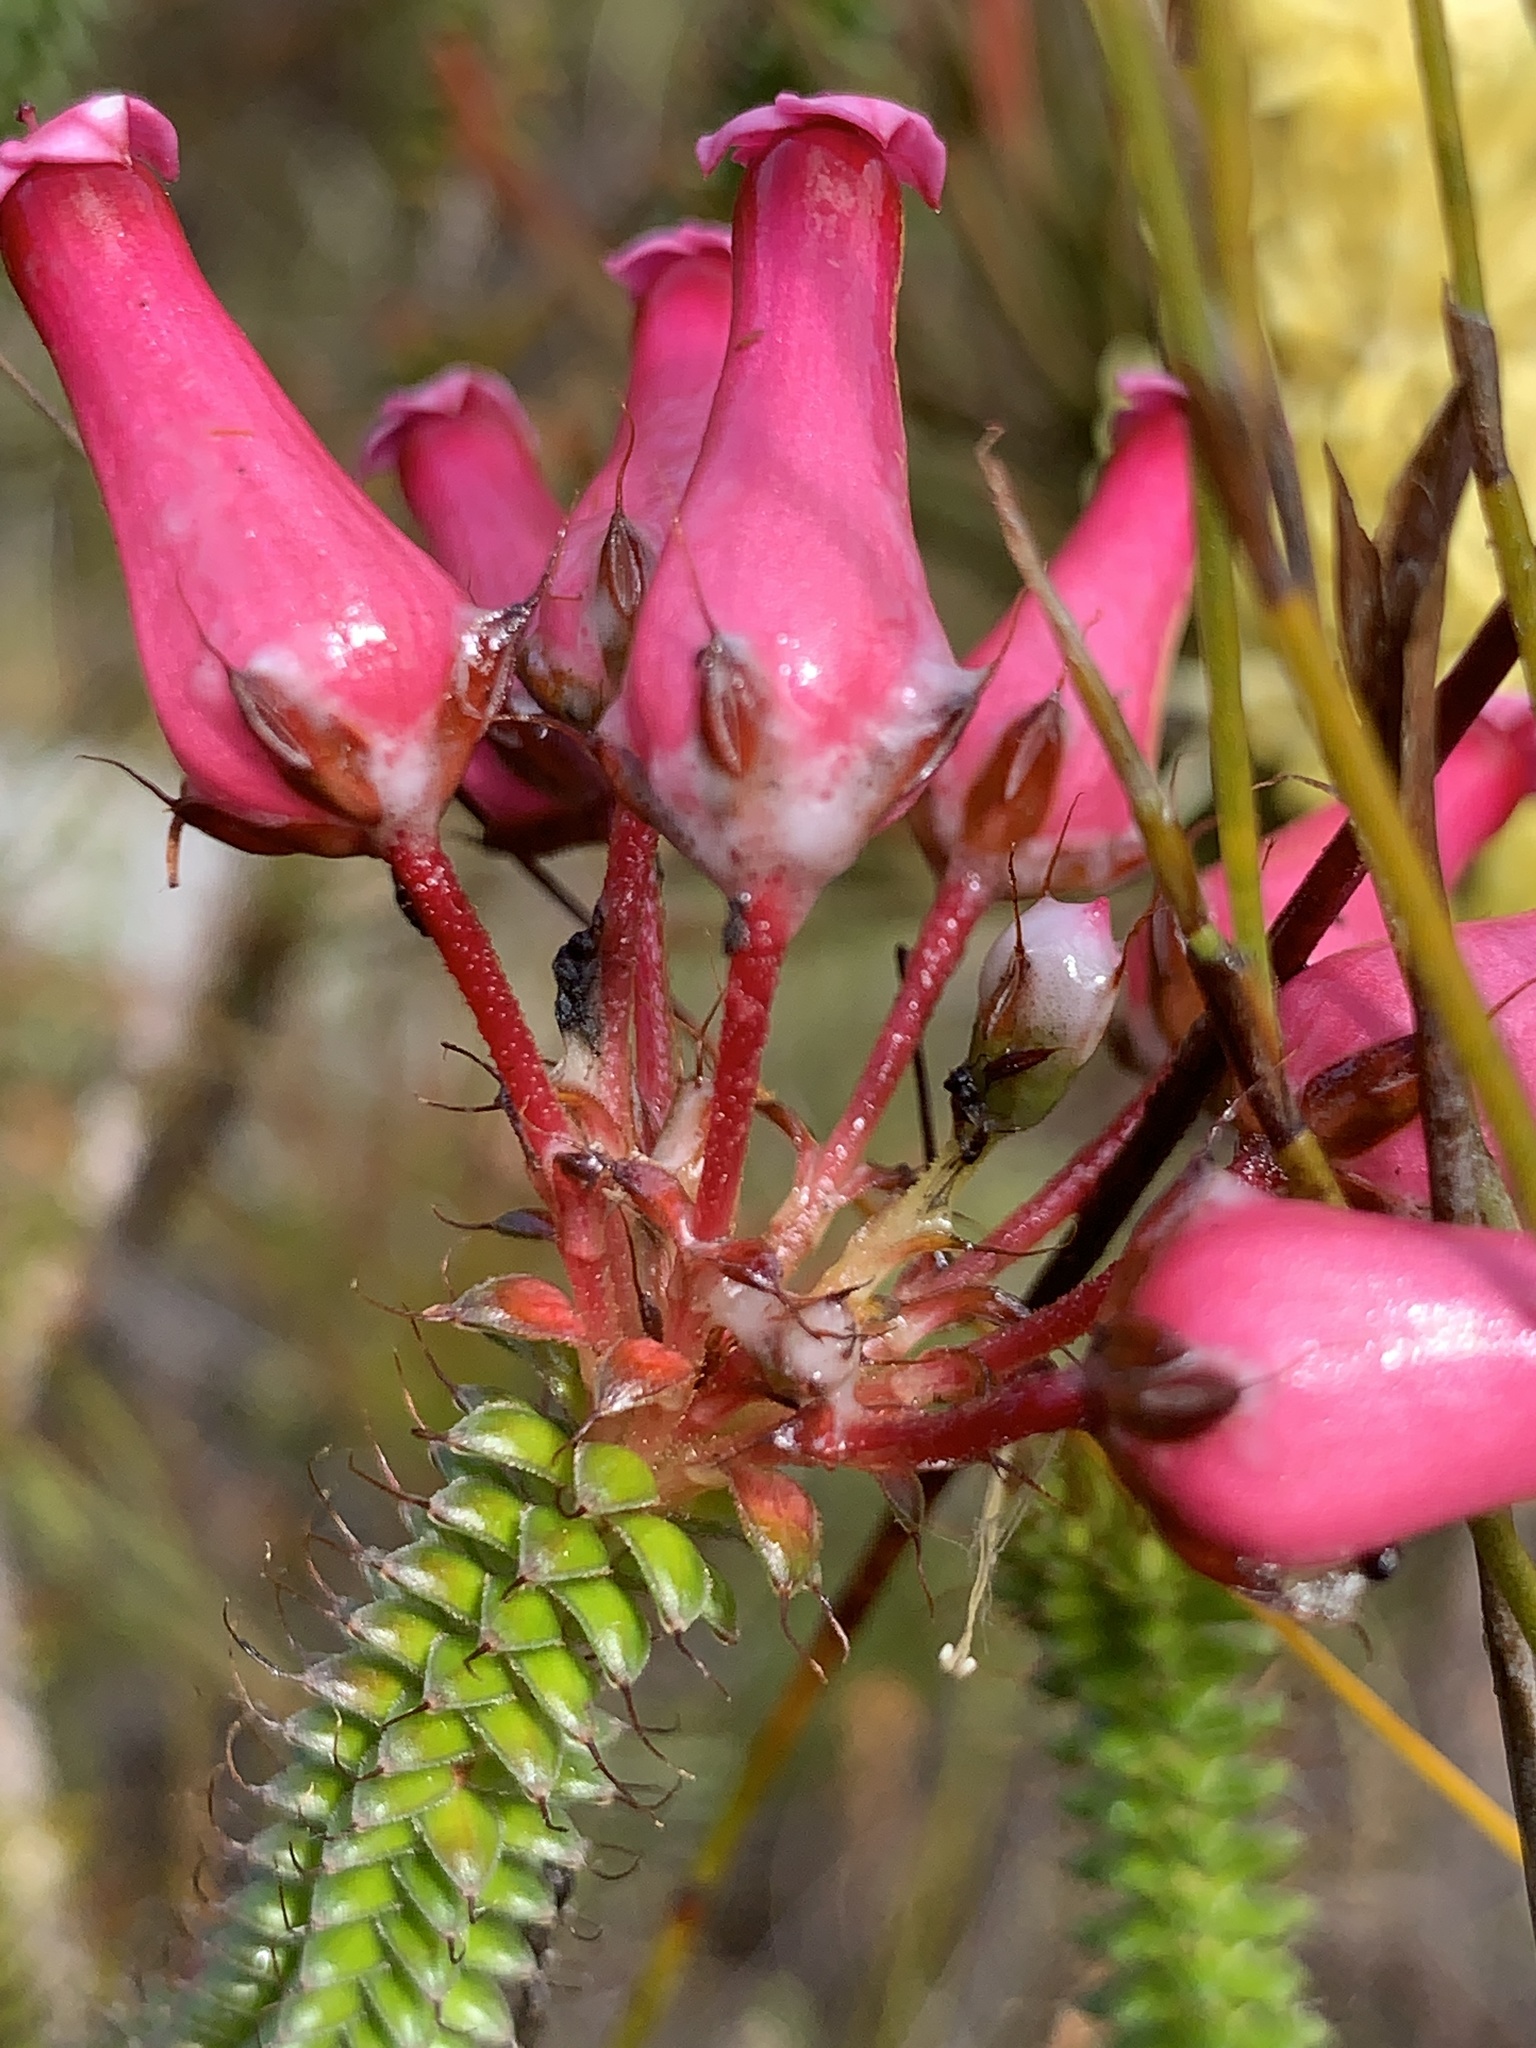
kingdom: Plantae
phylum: Tracheophyta
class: Magnoliopsida
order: Ericales
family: Ericaceae
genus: Erica
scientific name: Erica retorta
